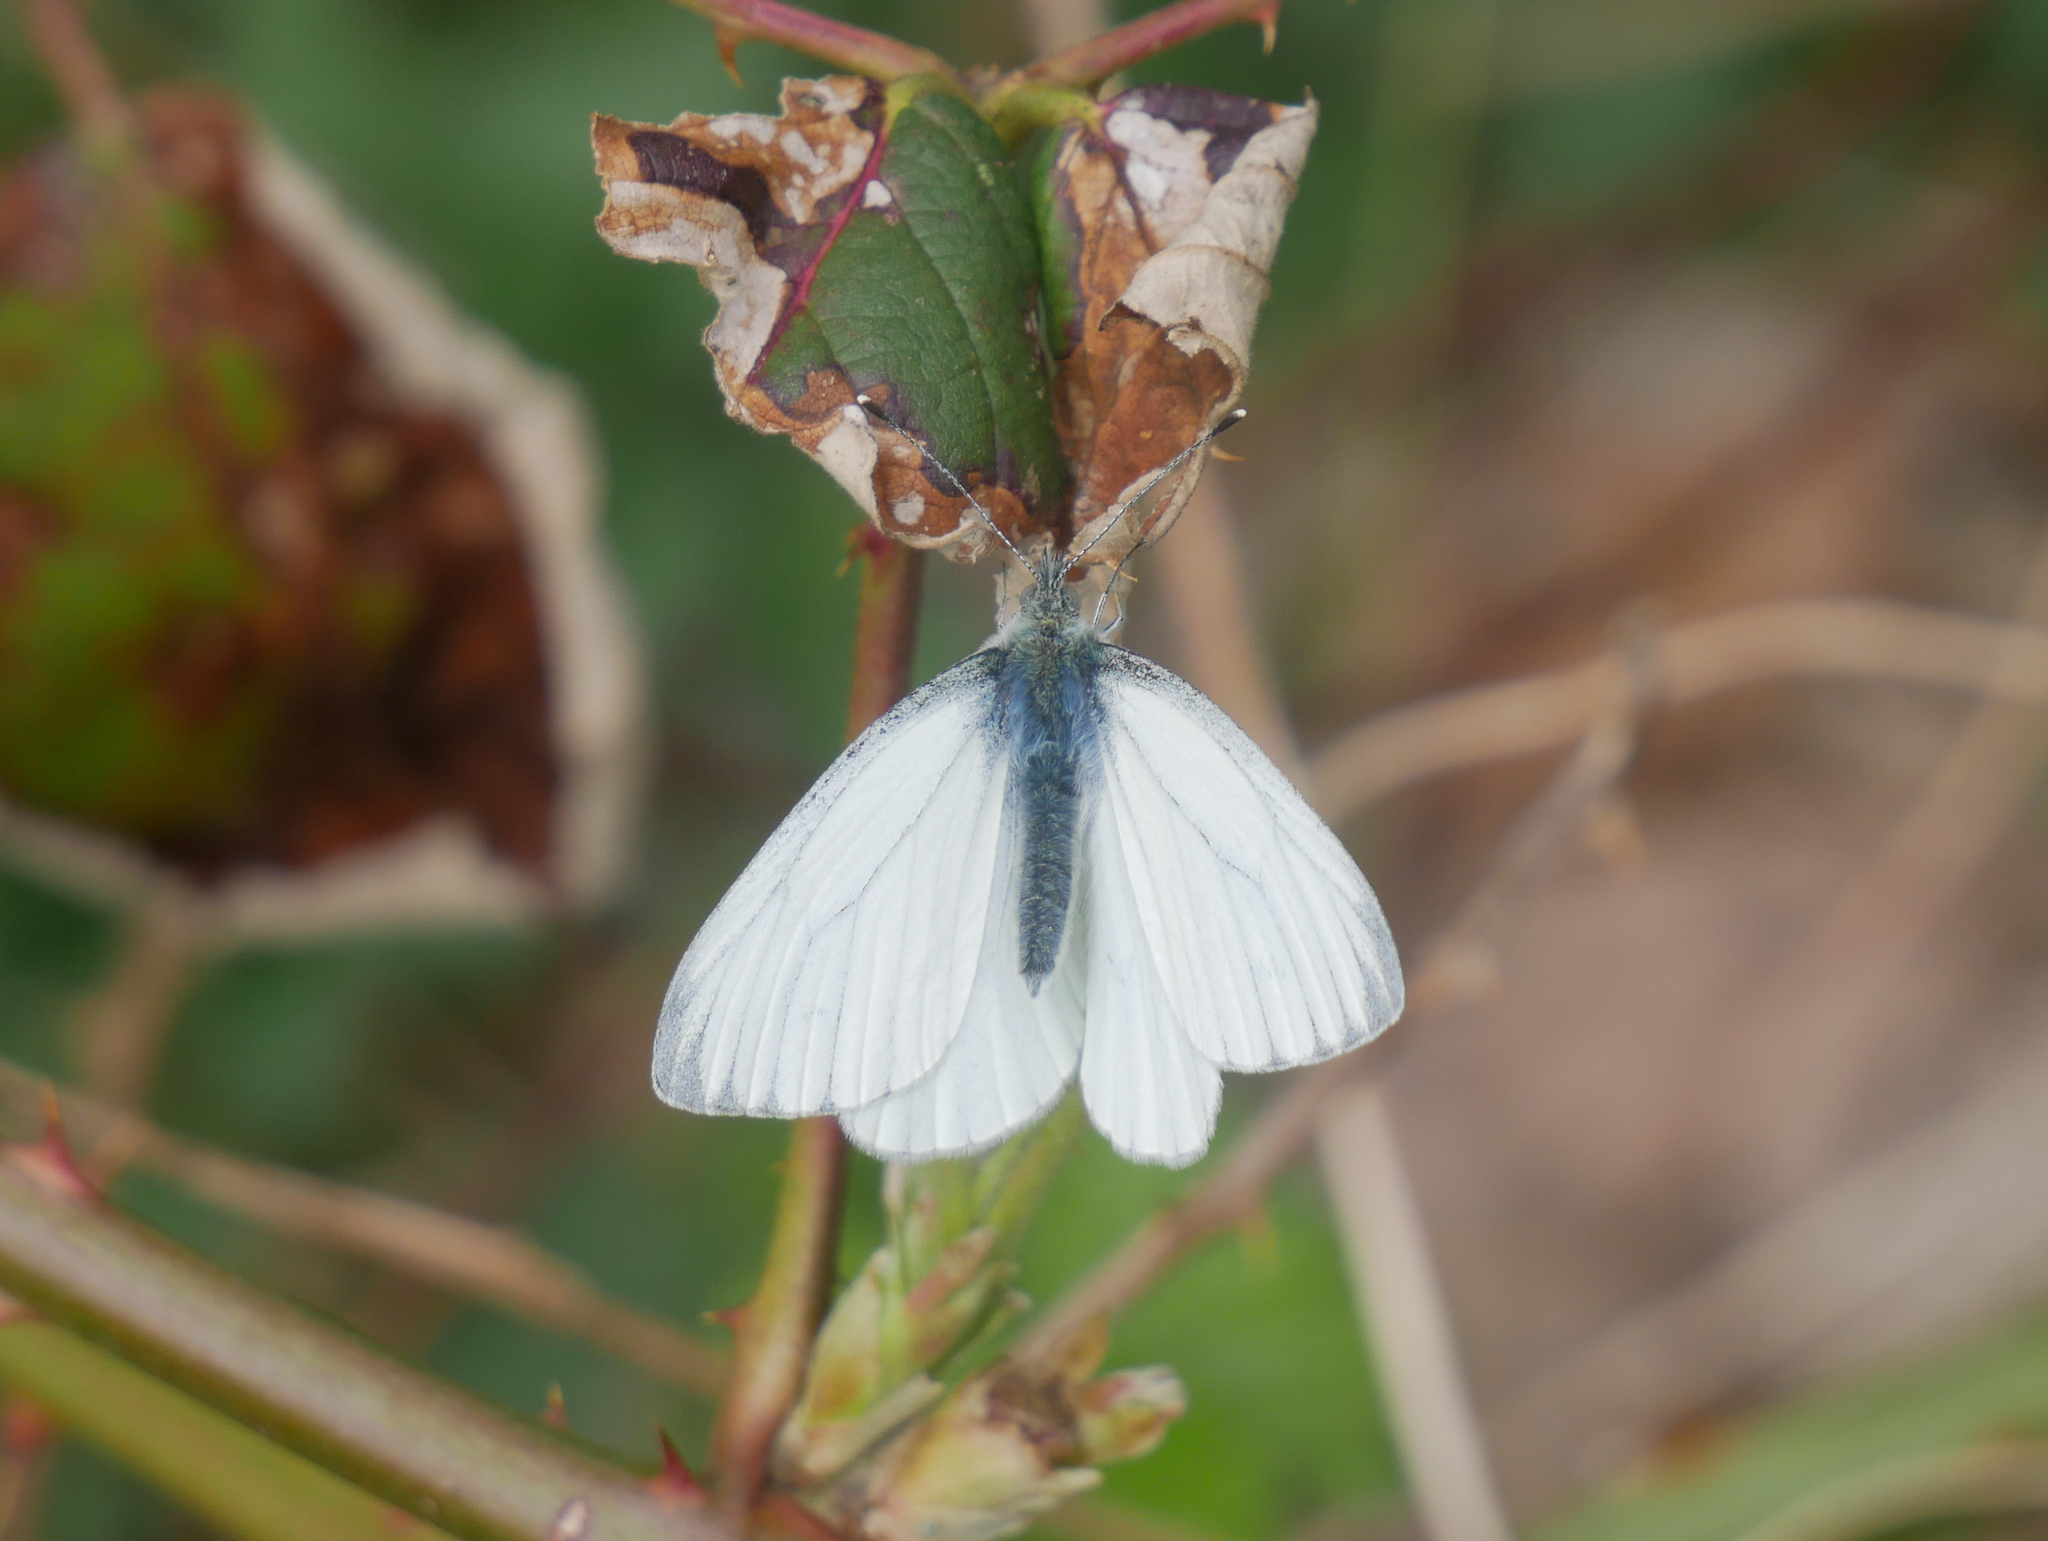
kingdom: Animalia
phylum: Arthropoda
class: Insecta
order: Lepidoptera
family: Pieridae
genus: Pieris
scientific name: Pieris napi
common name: Green-veined white
